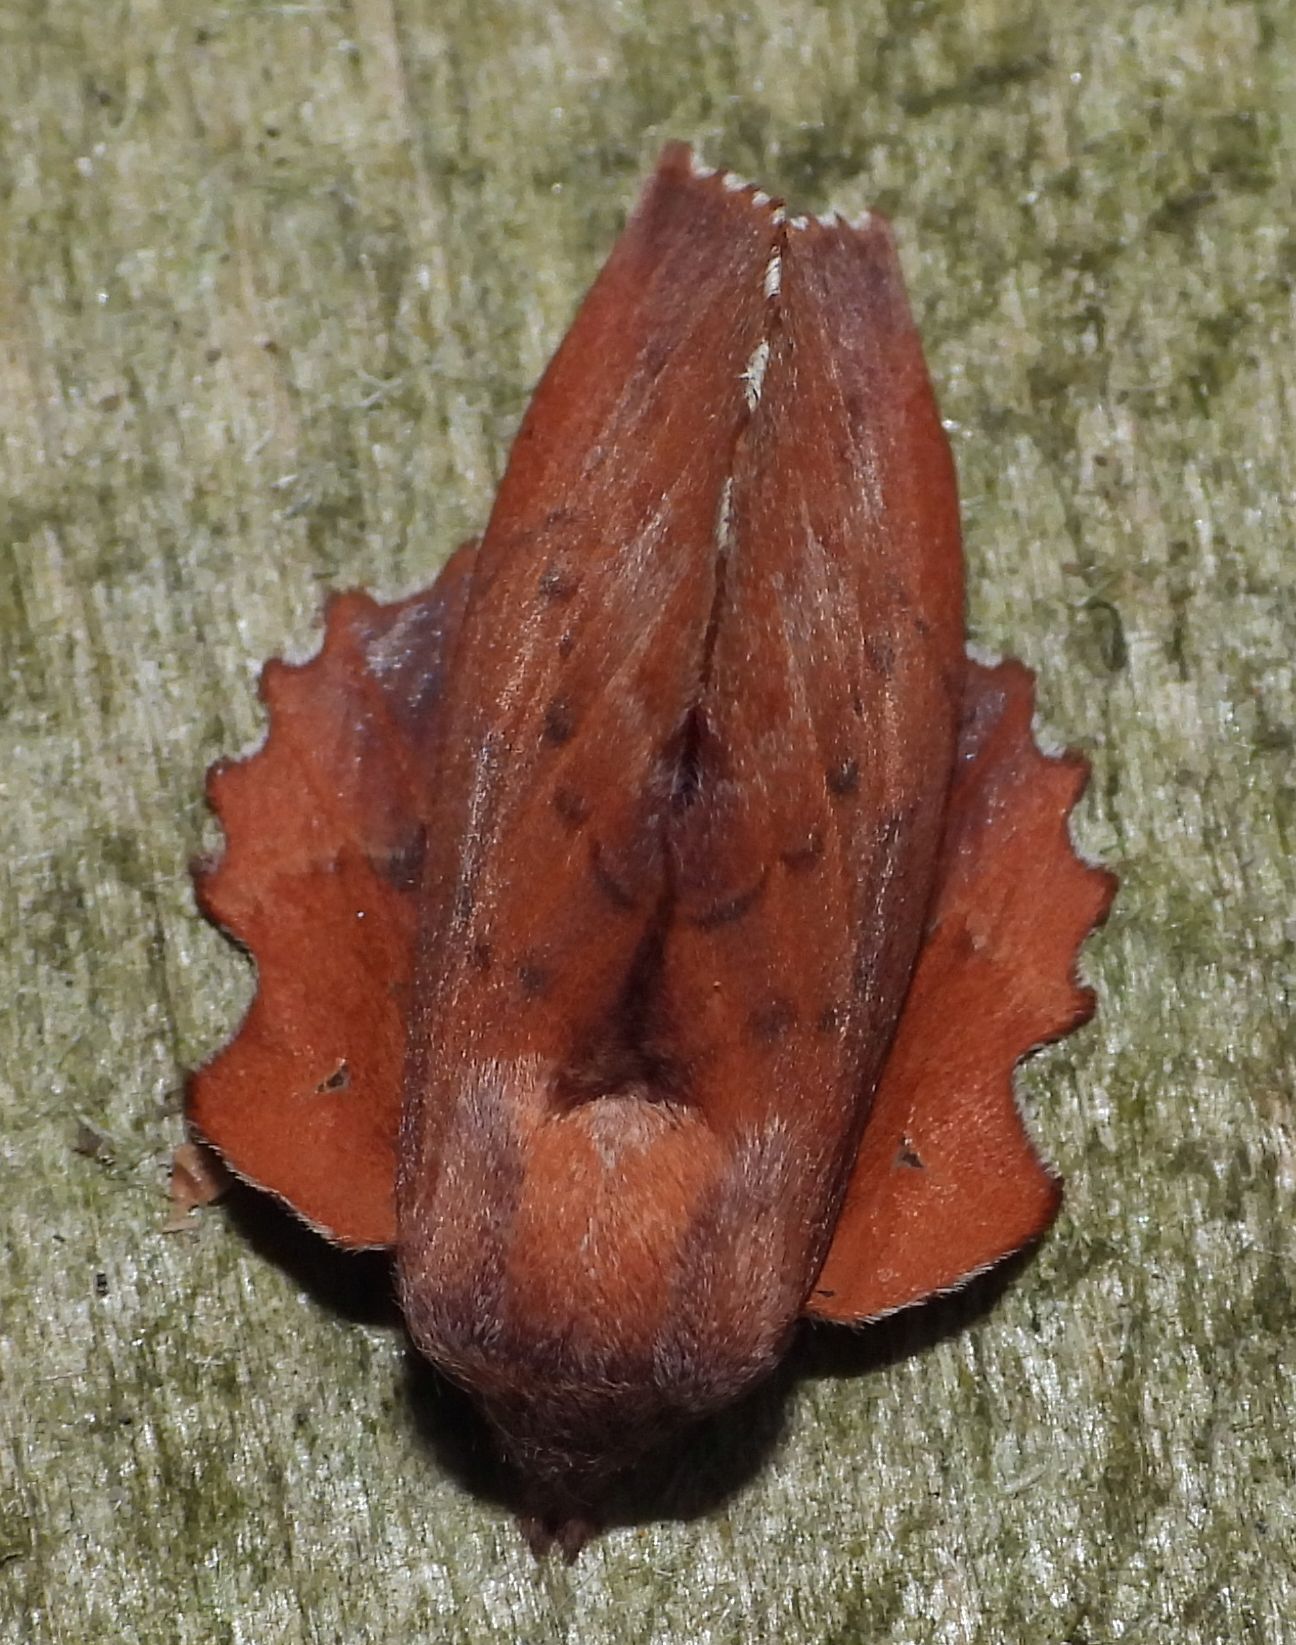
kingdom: Animalia
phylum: Arthropoda
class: Insecta
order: Lepidoptera
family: Lasiocampidae
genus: Phyllodesma
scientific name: Phyllodesma americana
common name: American lappet moth
